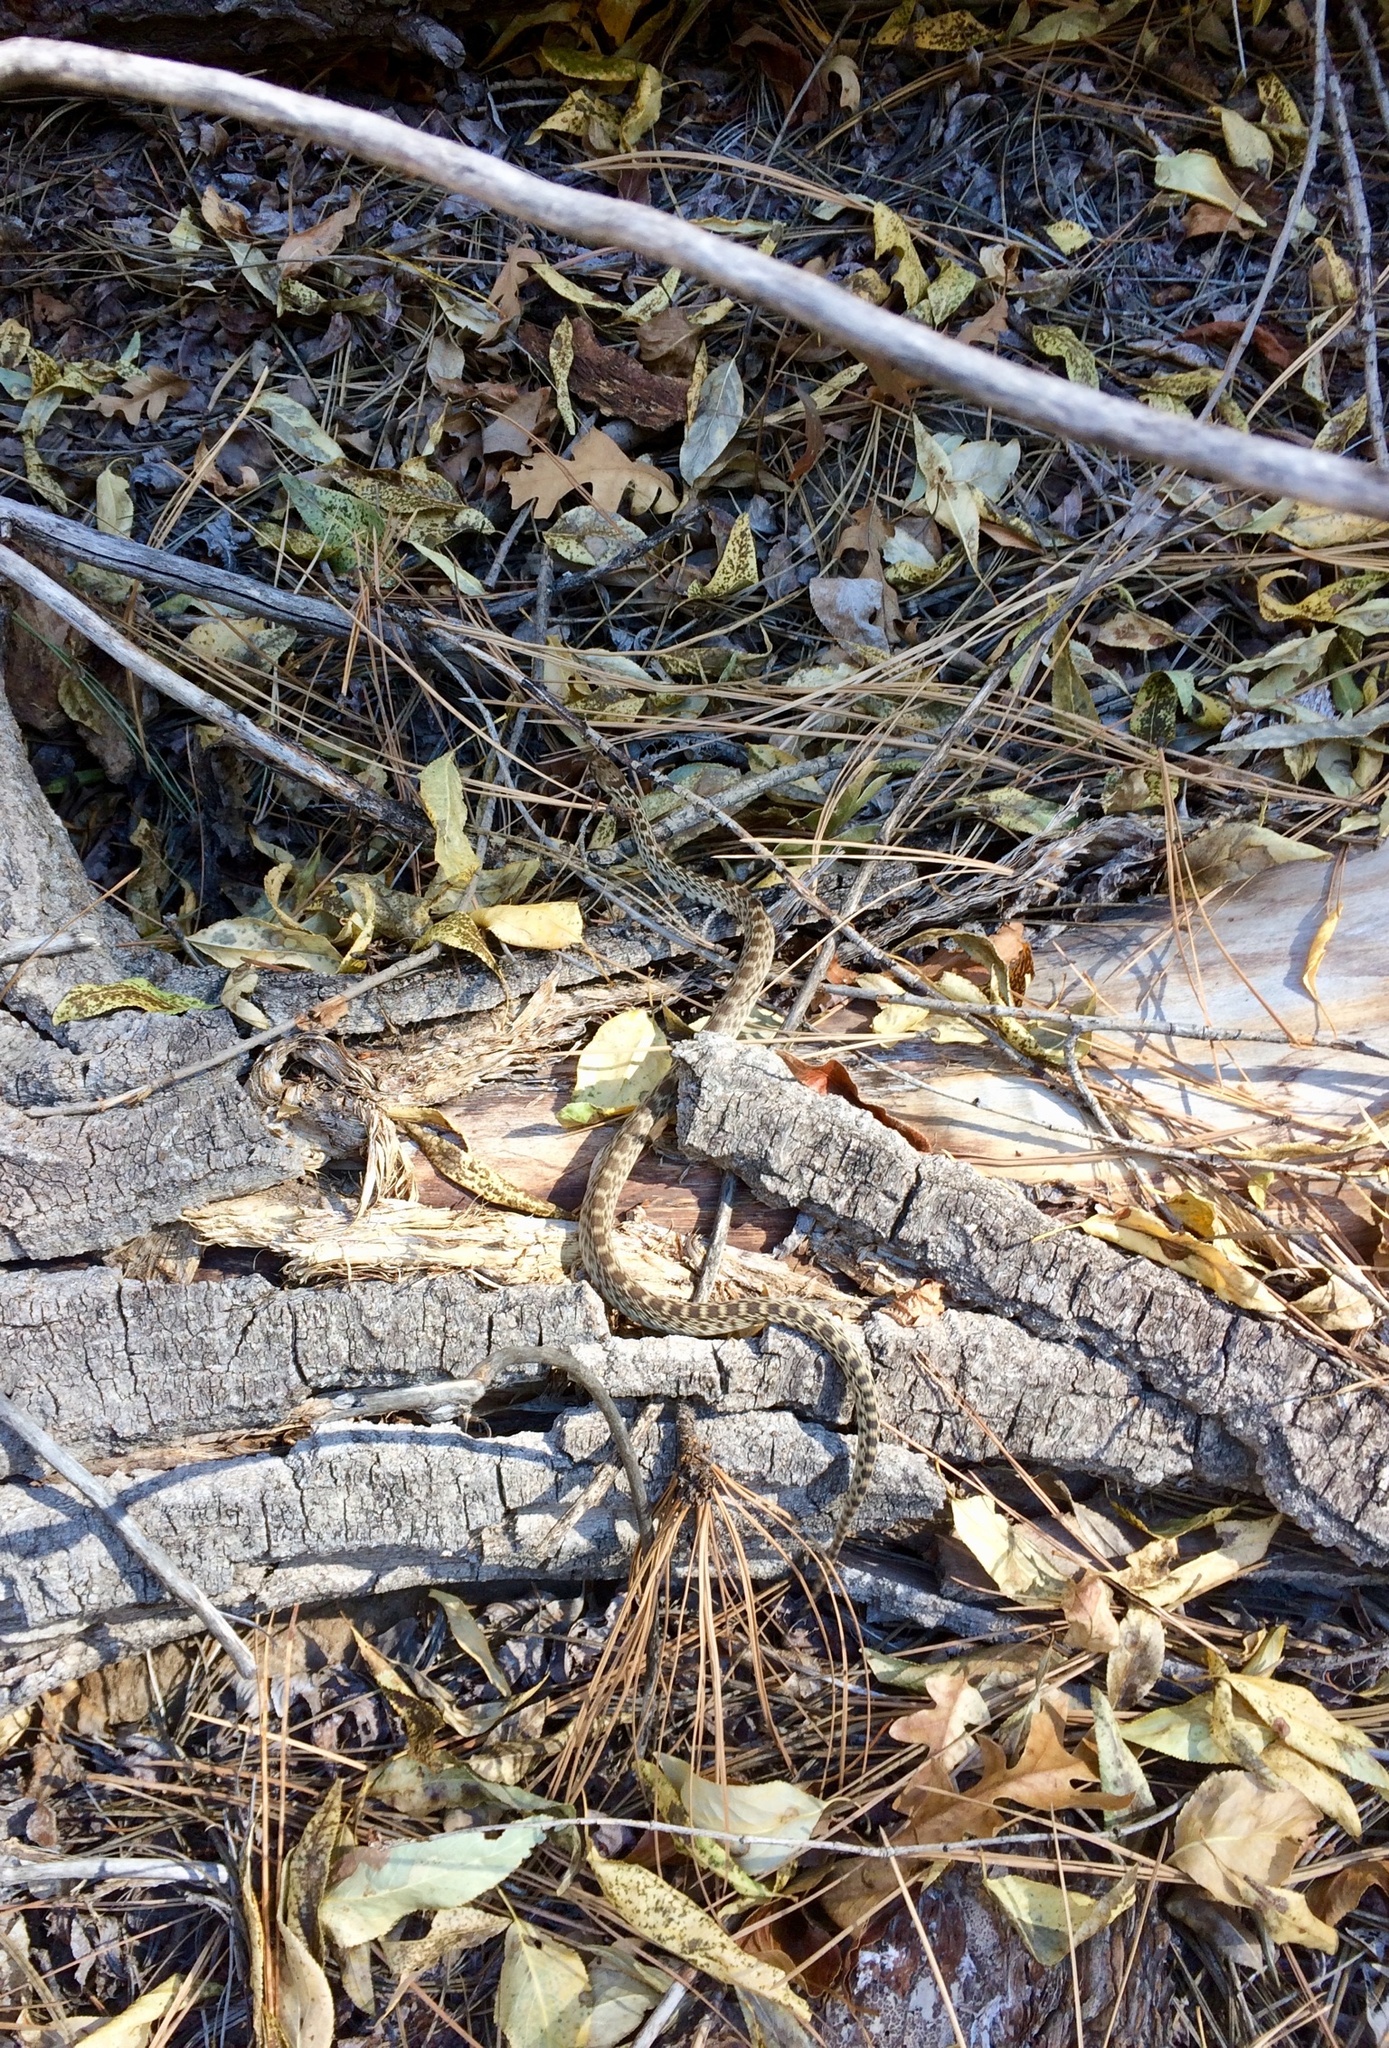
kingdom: Animalia
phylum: Chordata
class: Squamata
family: Colubridae
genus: Pituophis
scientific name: Pituophis catenifer
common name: Gopher snake
